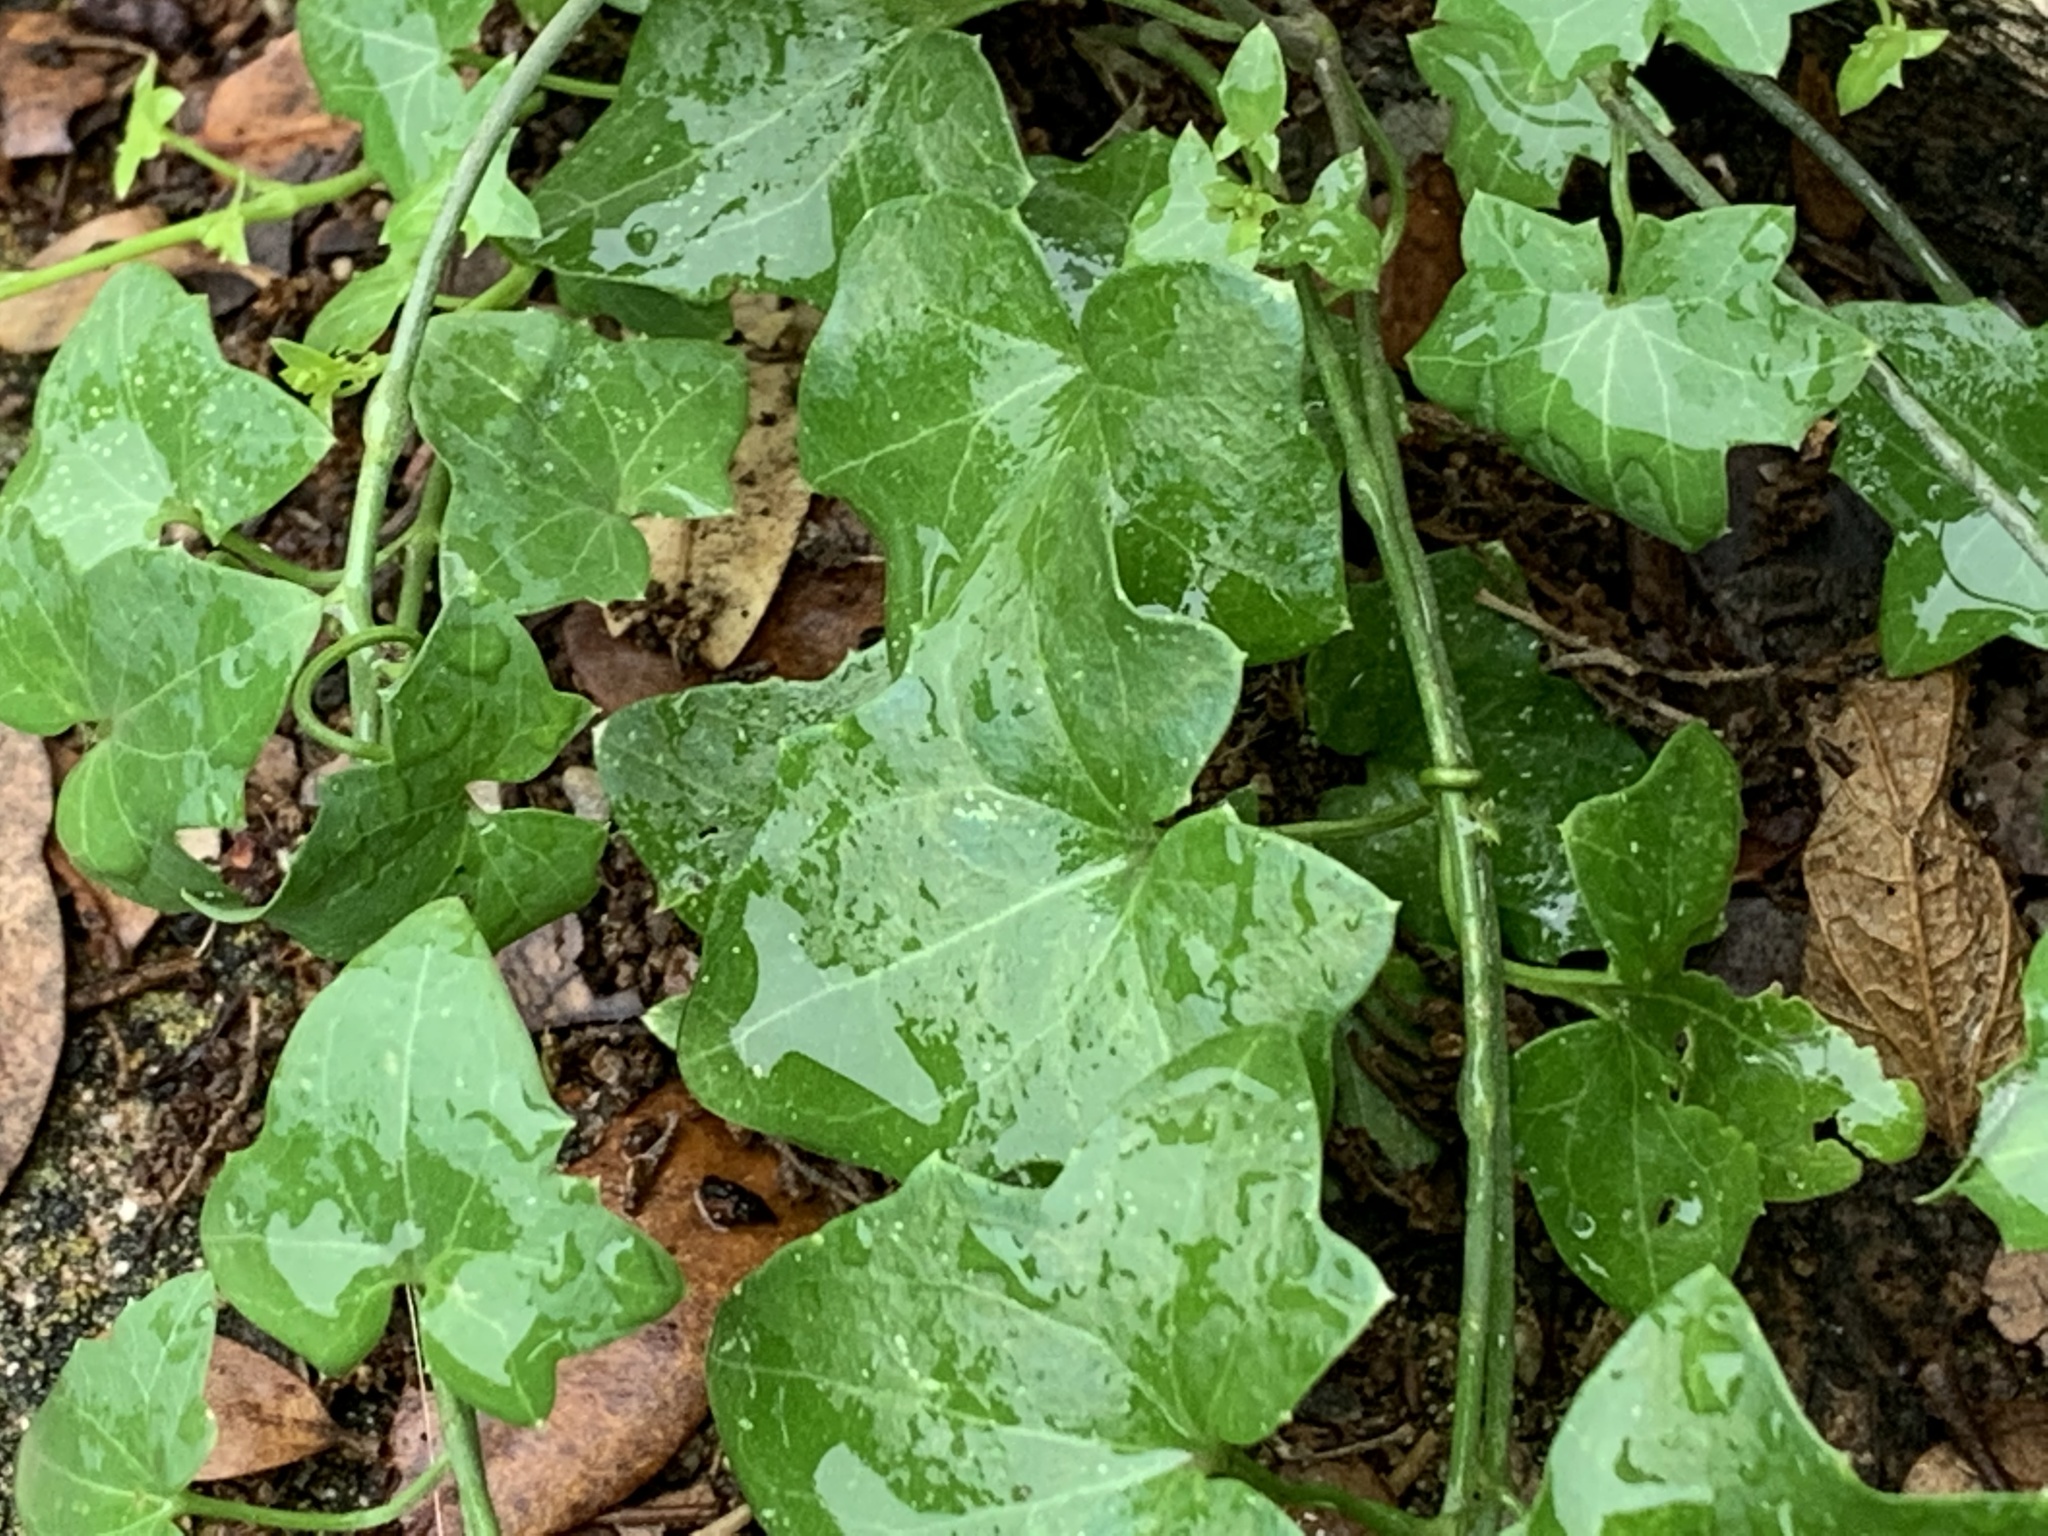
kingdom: Plantae
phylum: Tracheophyta
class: Magnoliopsida
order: Lamiales
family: Plantaginaceae
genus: Maurandella
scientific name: Maurandella antirrhiniflora
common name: Violet twining-snapdragon
